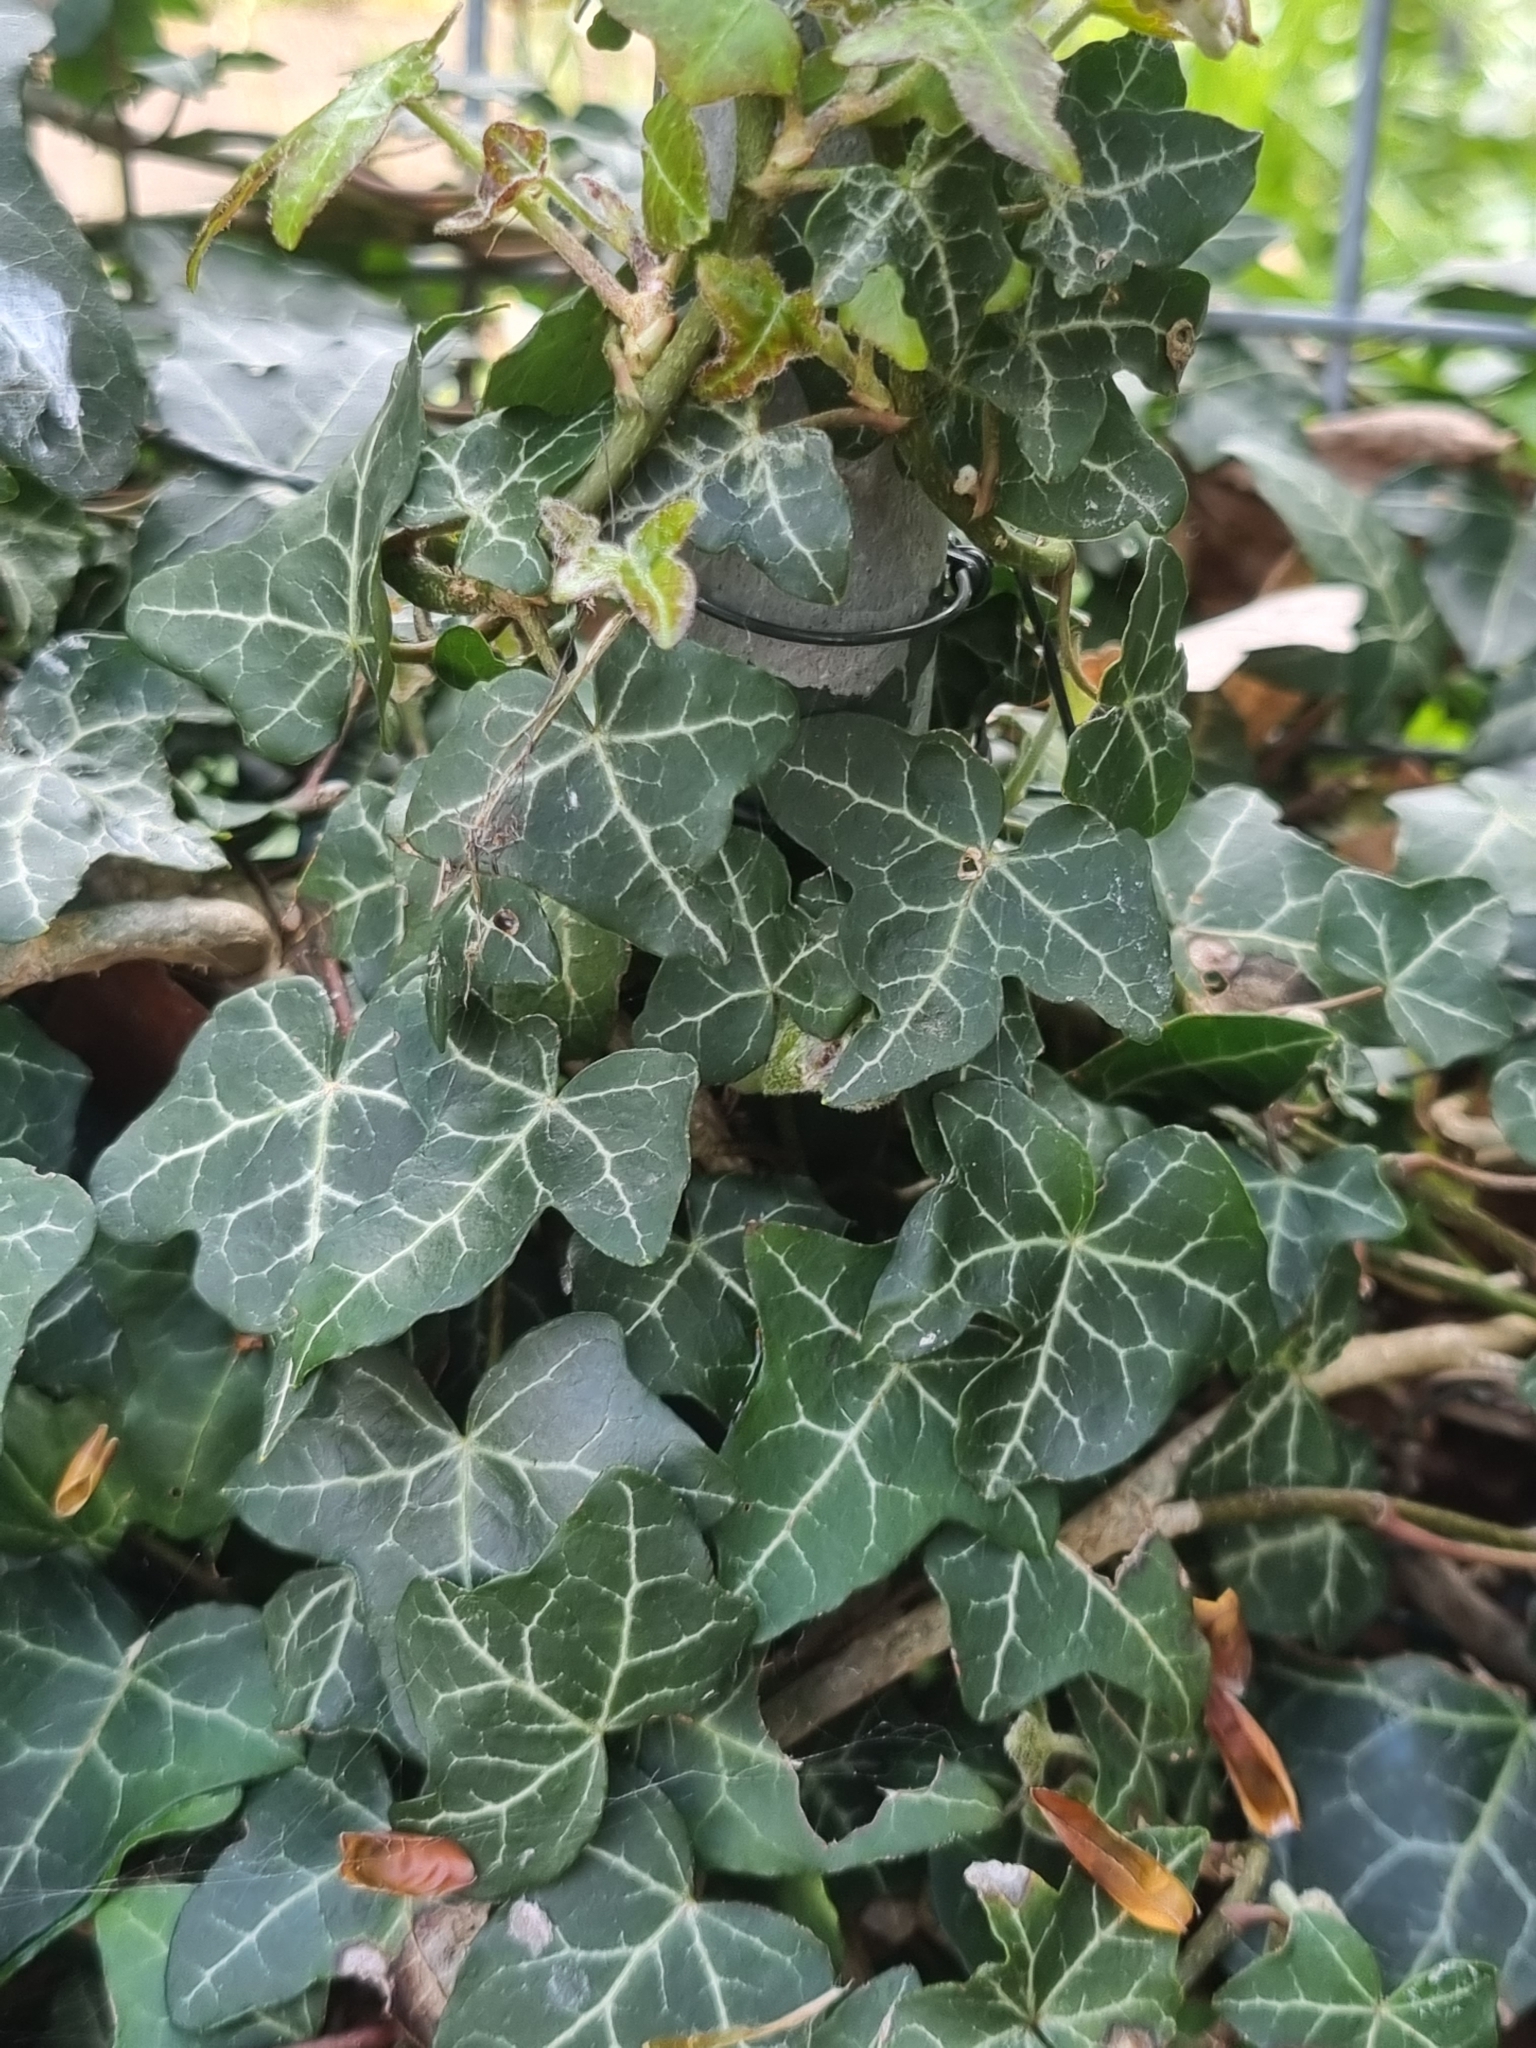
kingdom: Plantae
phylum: Tracheophyta
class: Magnoliopsida
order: Apiales
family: Araliaceae
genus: Hedera
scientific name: Hedera helix
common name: Ivy
